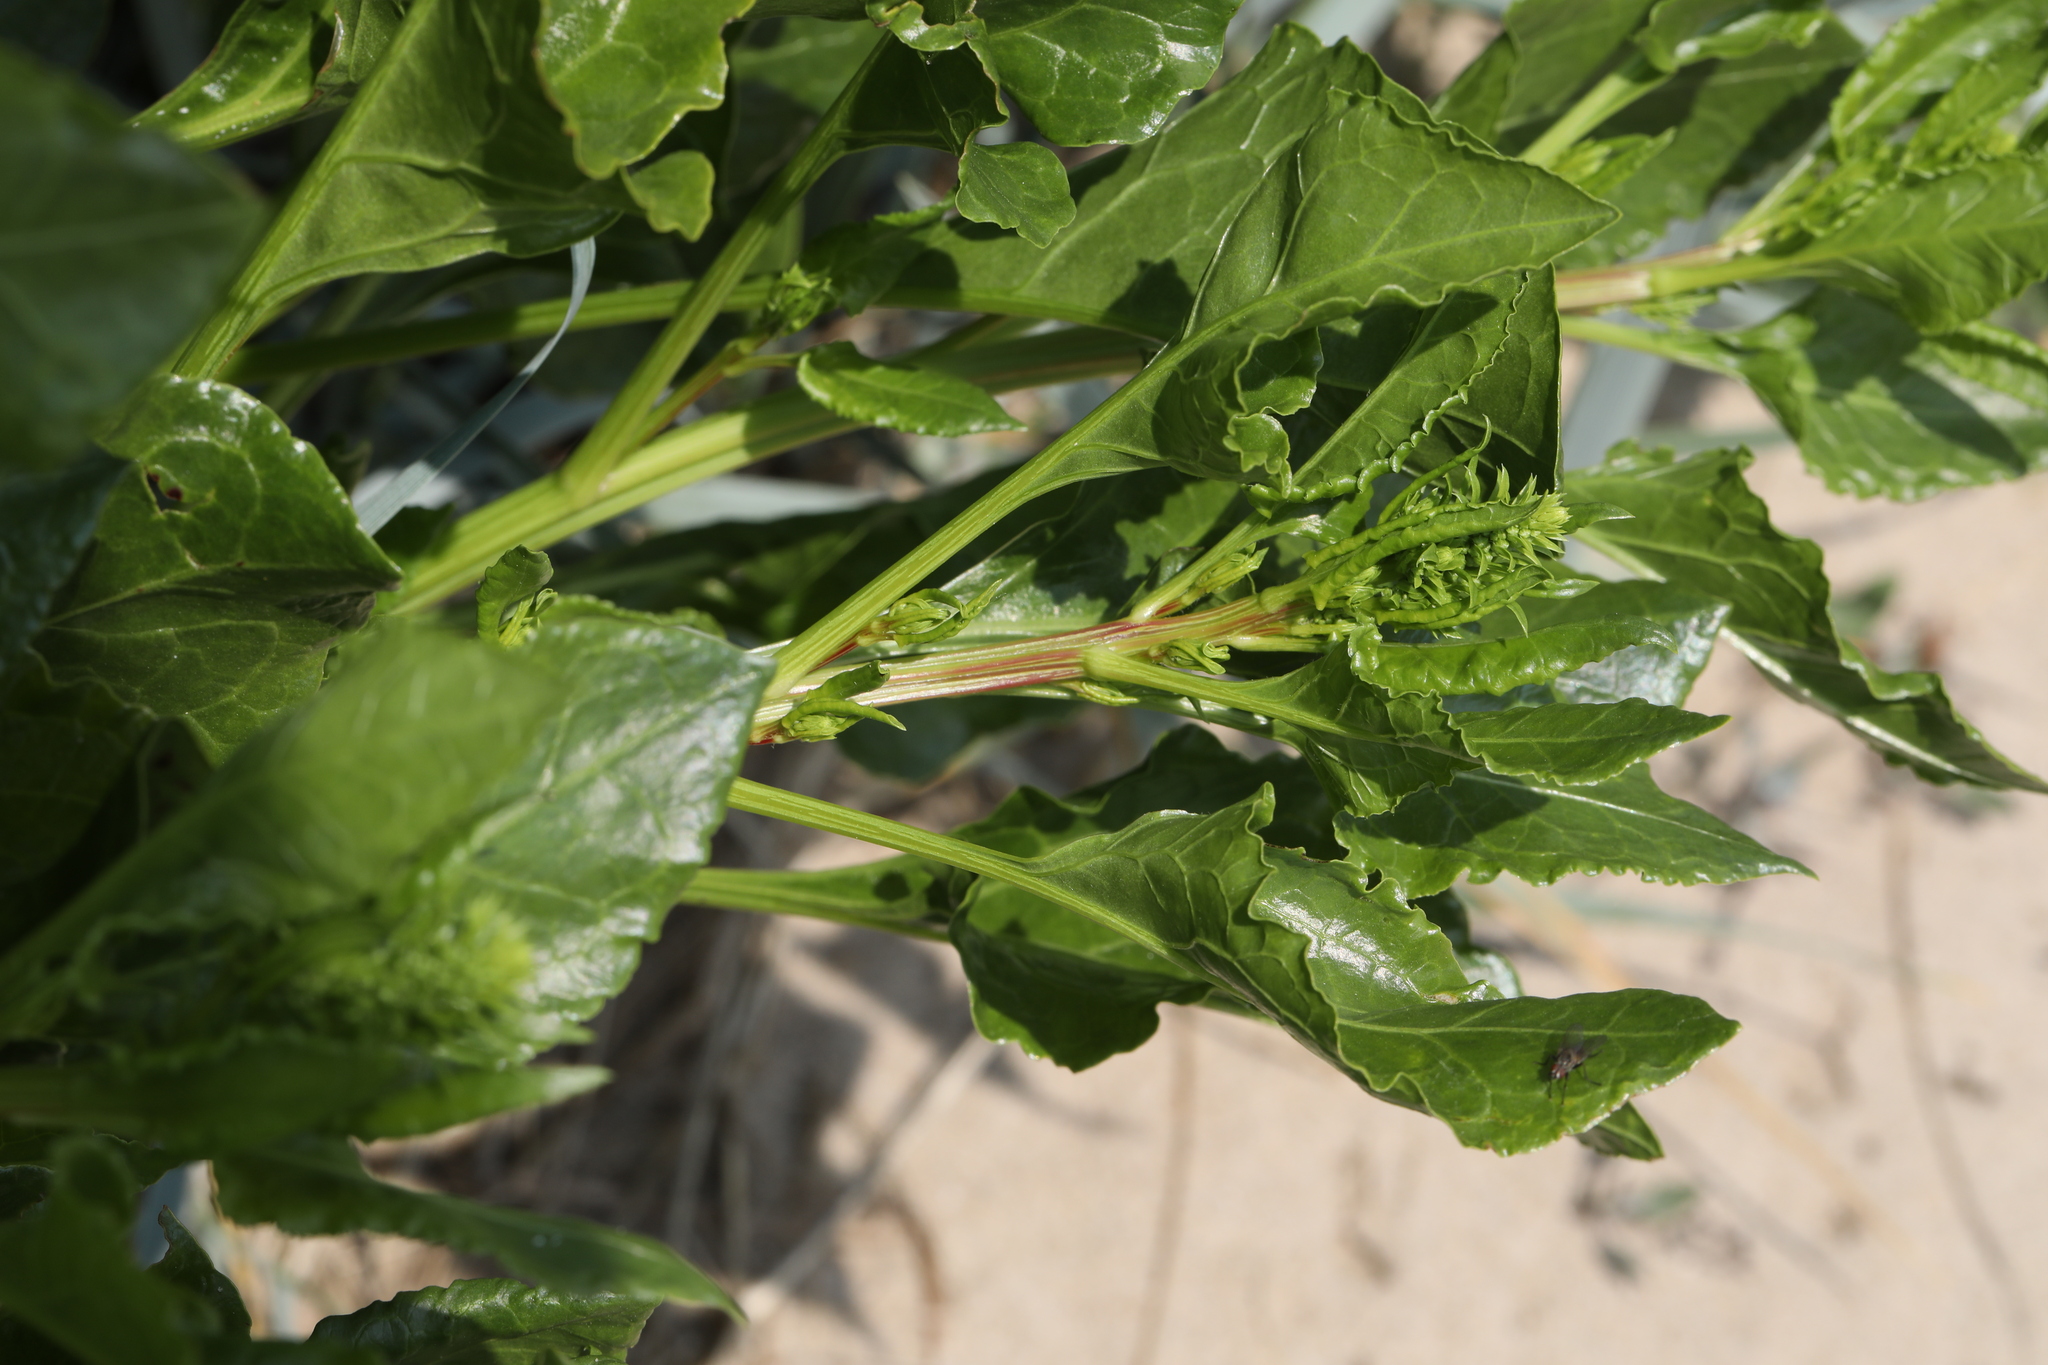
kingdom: Plantae
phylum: Tracheophyta
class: Magnoliopsida
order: Caryophyllales
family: Amaranthaceae
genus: Beta
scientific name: Beta vulgaris
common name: Beet
